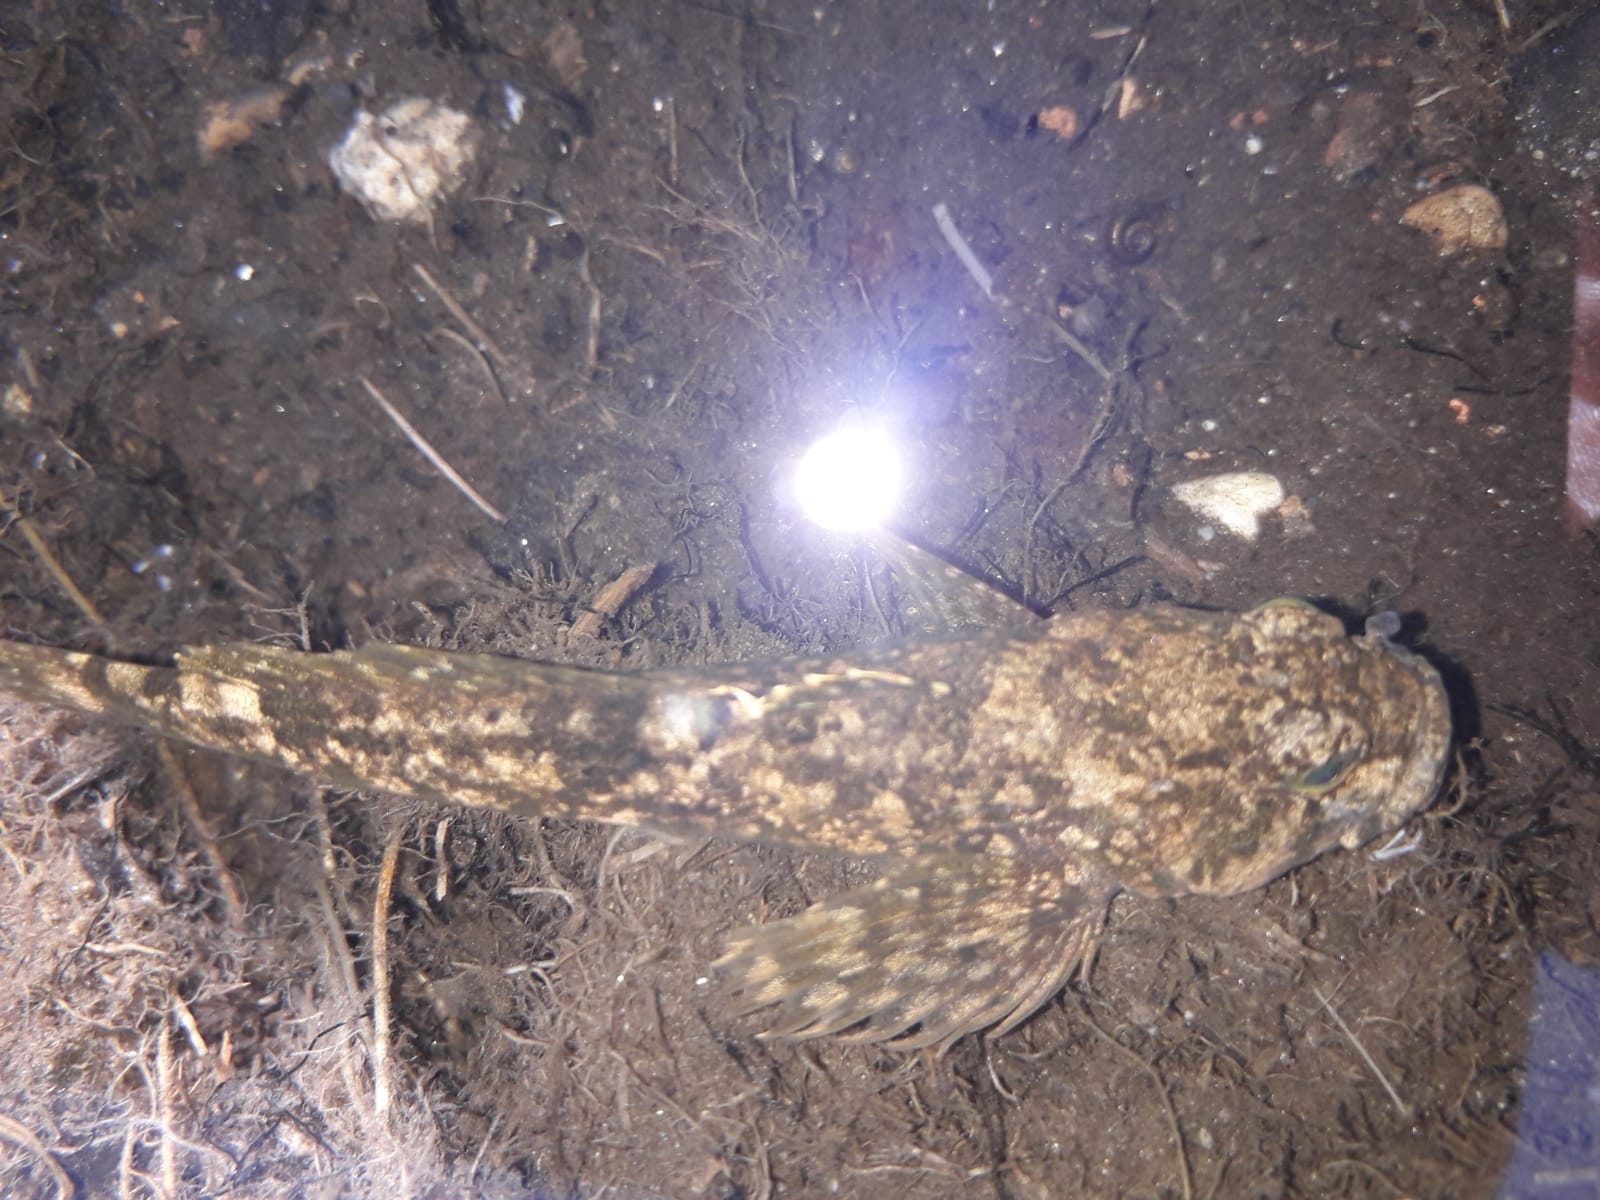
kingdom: Animalia
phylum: Chordata
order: Scorpaeniformes
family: Cottocomephoridae
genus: Paracottus
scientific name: Paracottus knerii
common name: Stone sculpin
